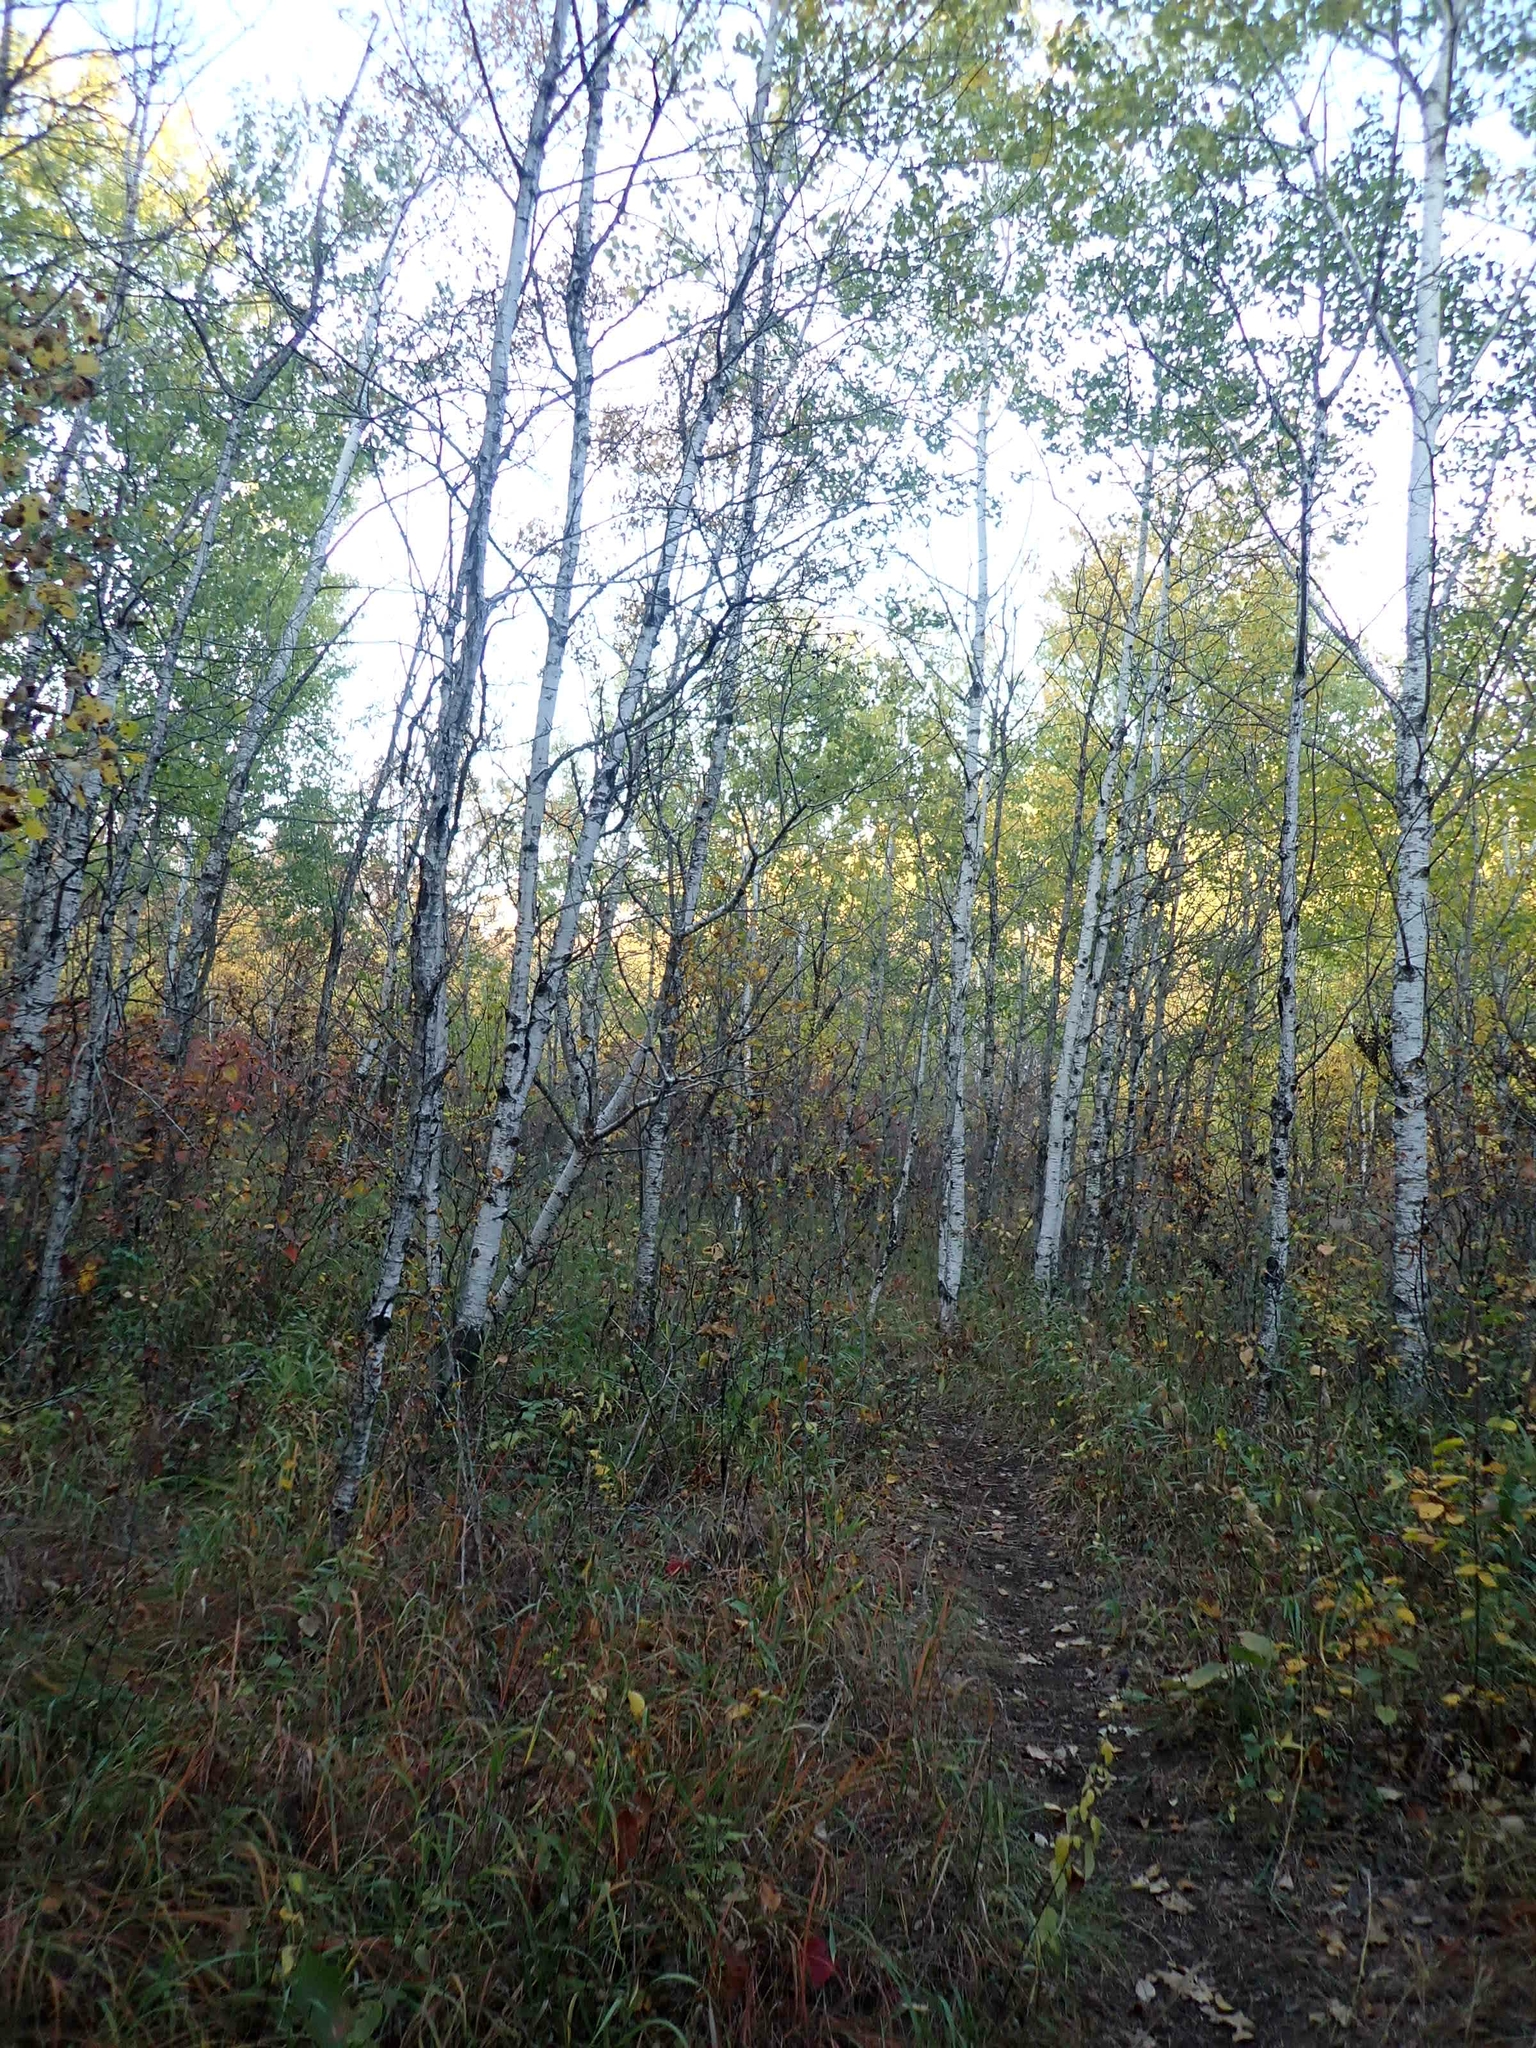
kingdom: Plantae
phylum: Tracheophyta
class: Magnoliopsida
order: Malpighiales
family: Salicaceae
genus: Populus
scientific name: Populus tremuloides
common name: Quaking aspen
